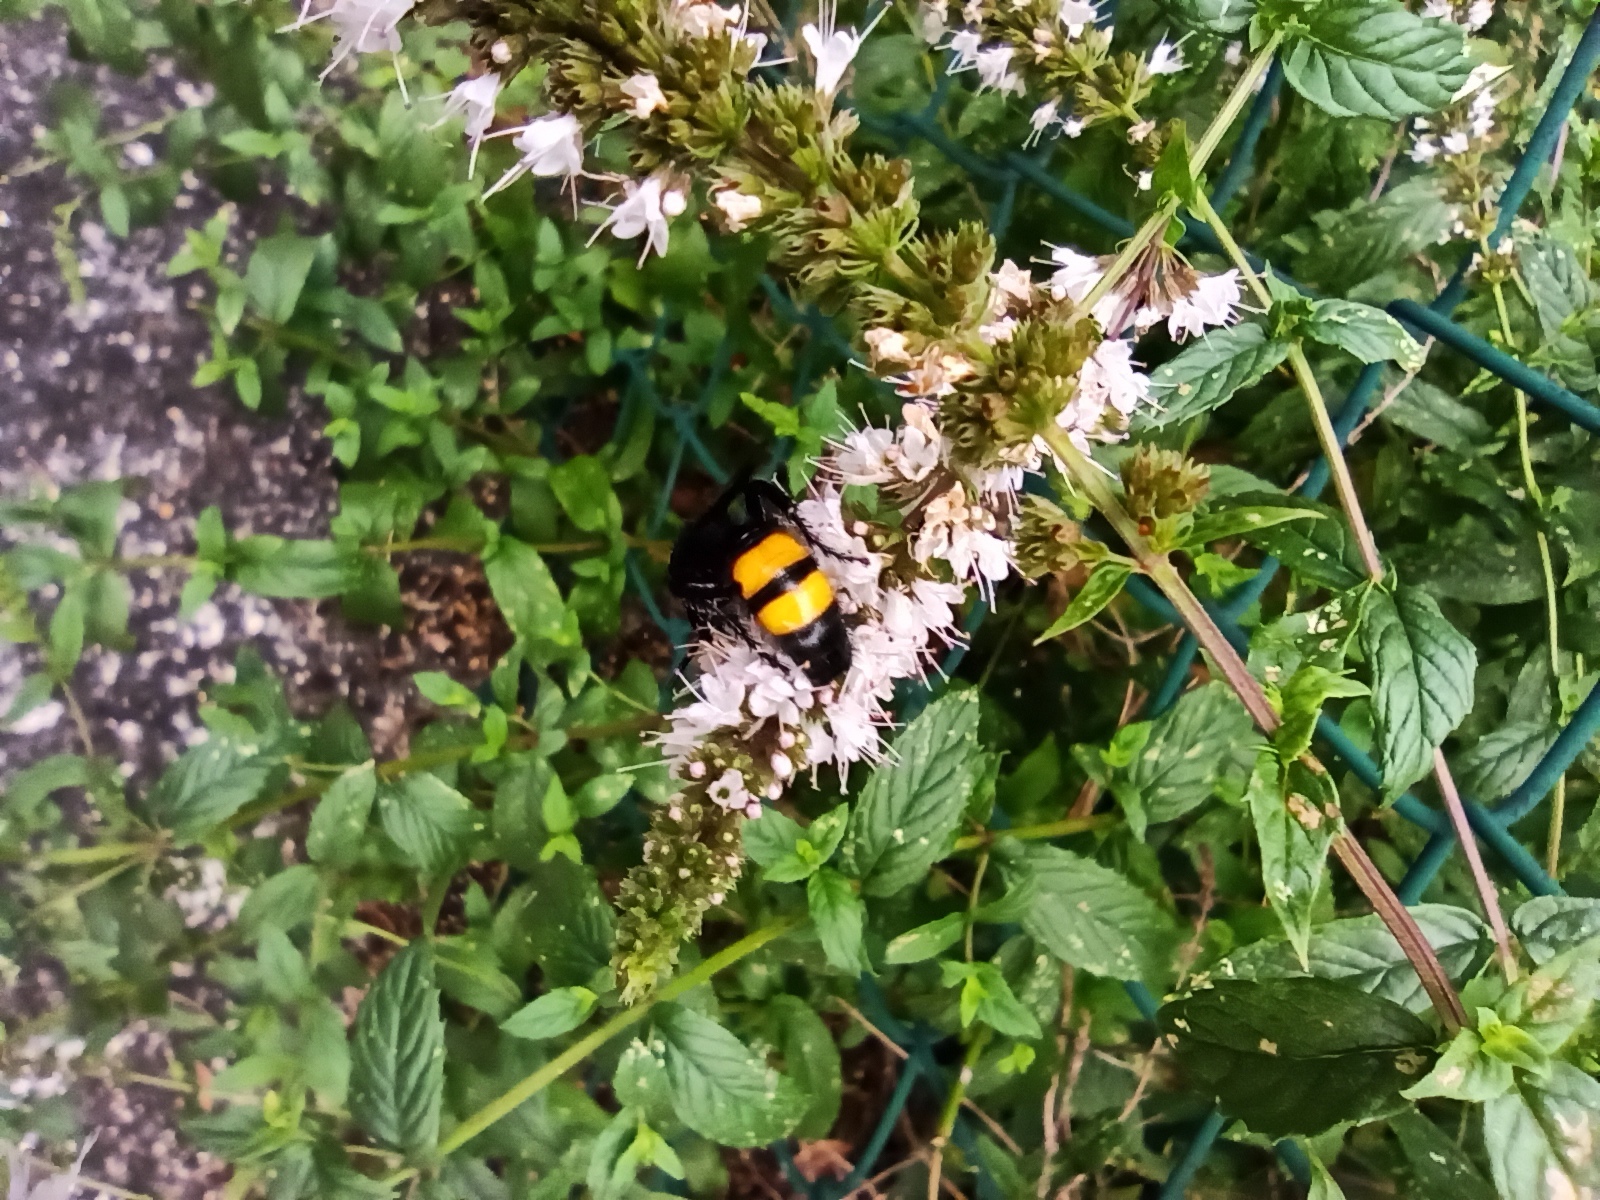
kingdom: Animalia
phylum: Arthropoda
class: Insecta
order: Hymenoptera
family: Scoliidae
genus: Scolia
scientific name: Scolia hirta
